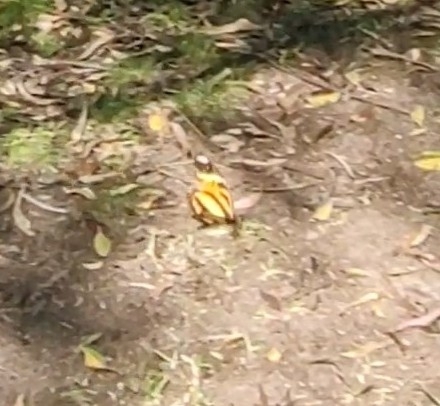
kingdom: Animalia
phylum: Arthropoda
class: Insecta
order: Lepidoptera
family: Nymphalidae
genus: Heliconius
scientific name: Heliconius ethilla
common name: Ethilia longwing
